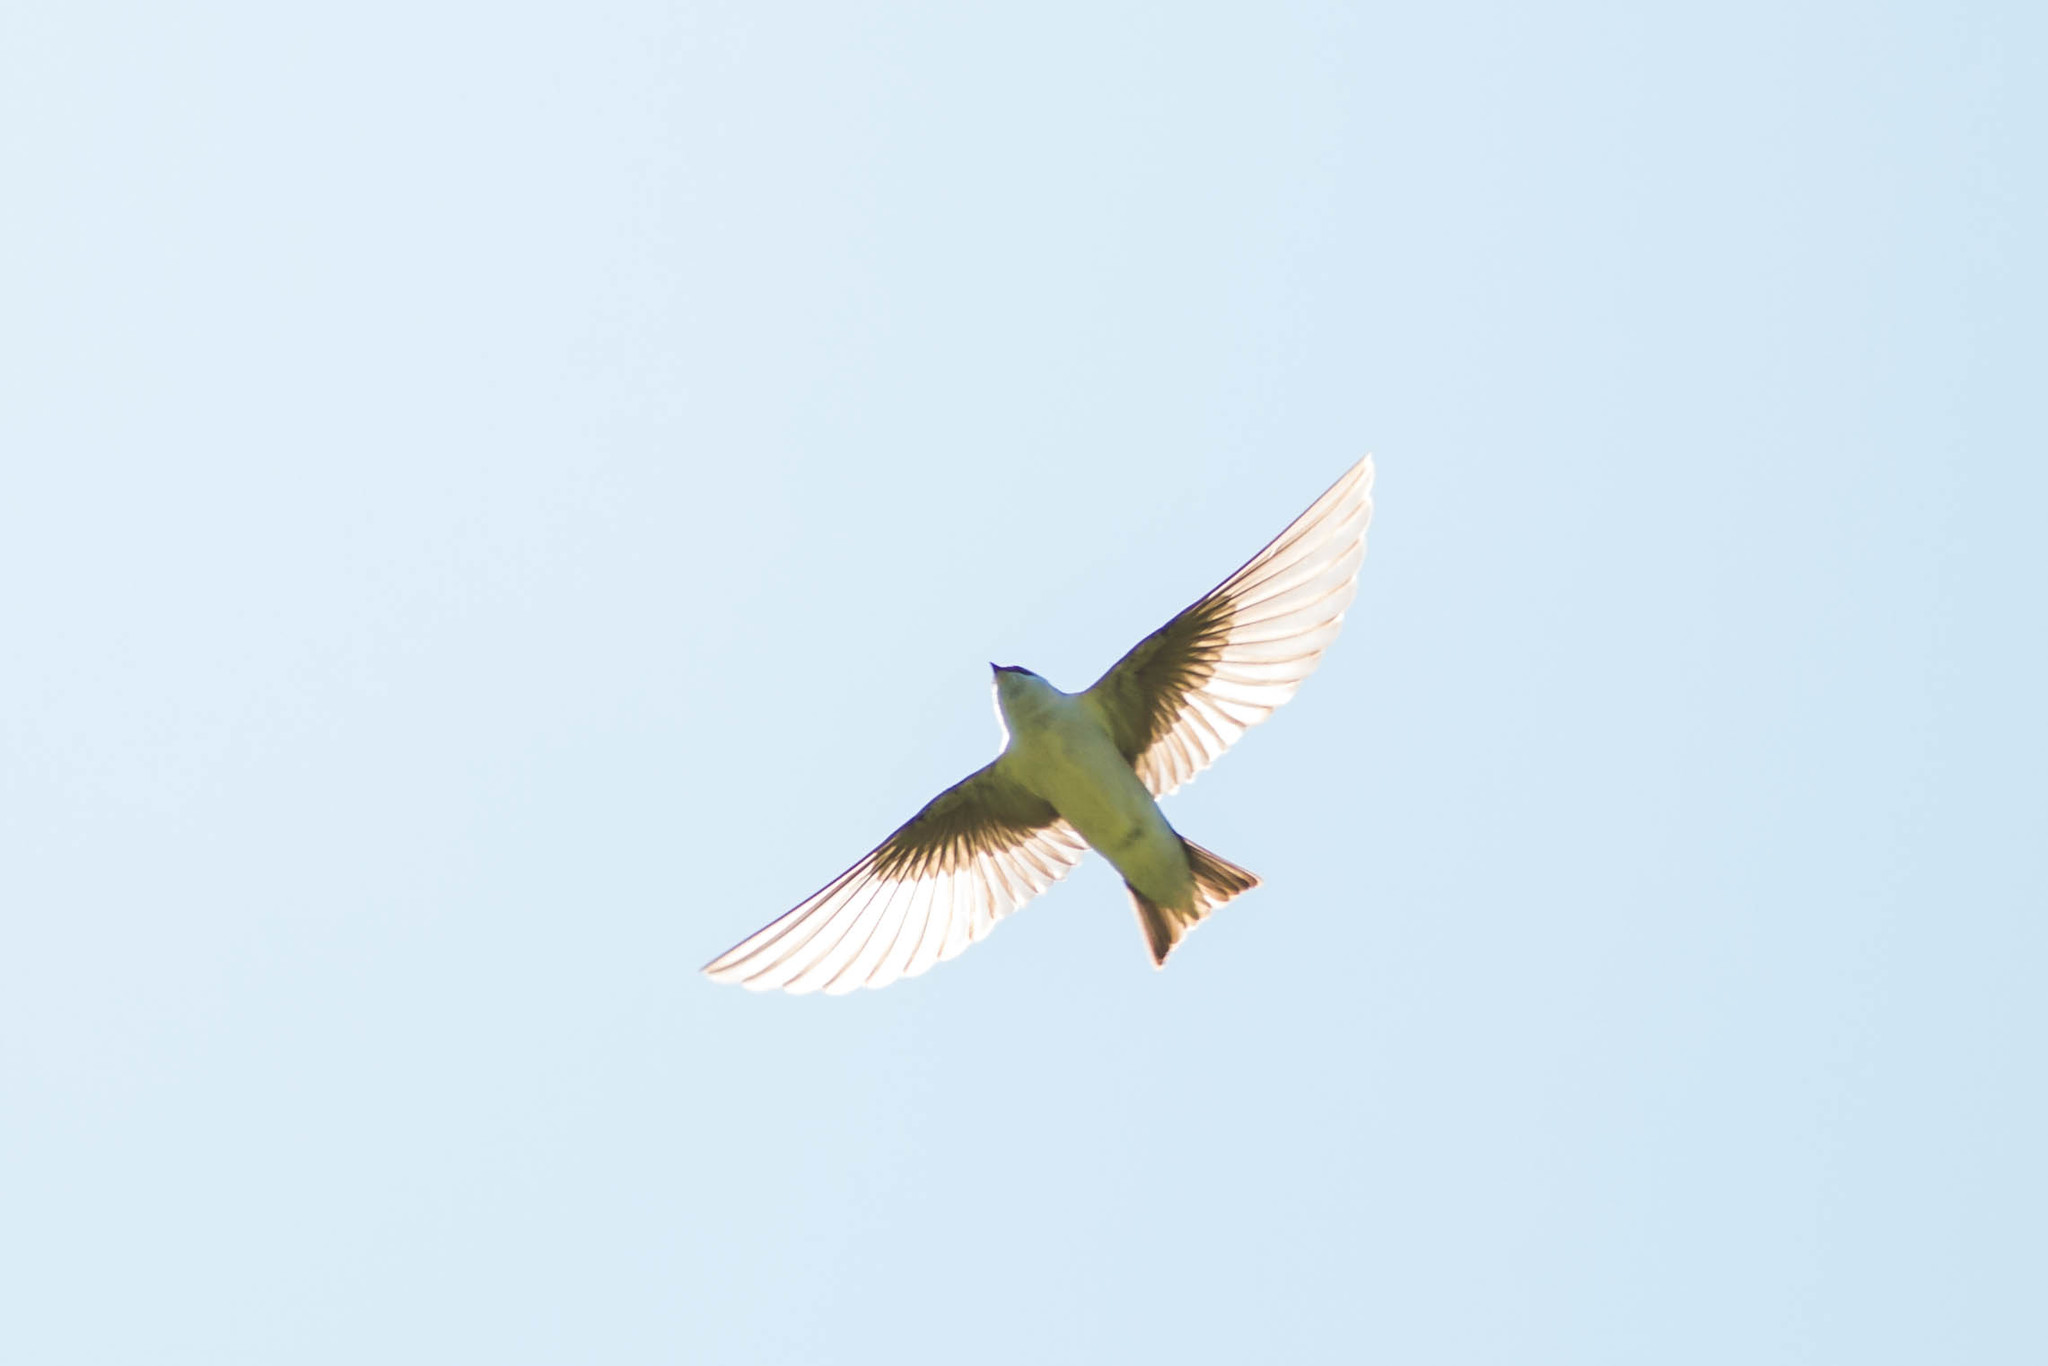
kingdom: Animalia
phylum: Chordata
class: Aves
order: Passeriformes
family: Hirundinidae
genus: Tachycineta
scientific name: Tachycineta bicolor
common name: Tree swallow
